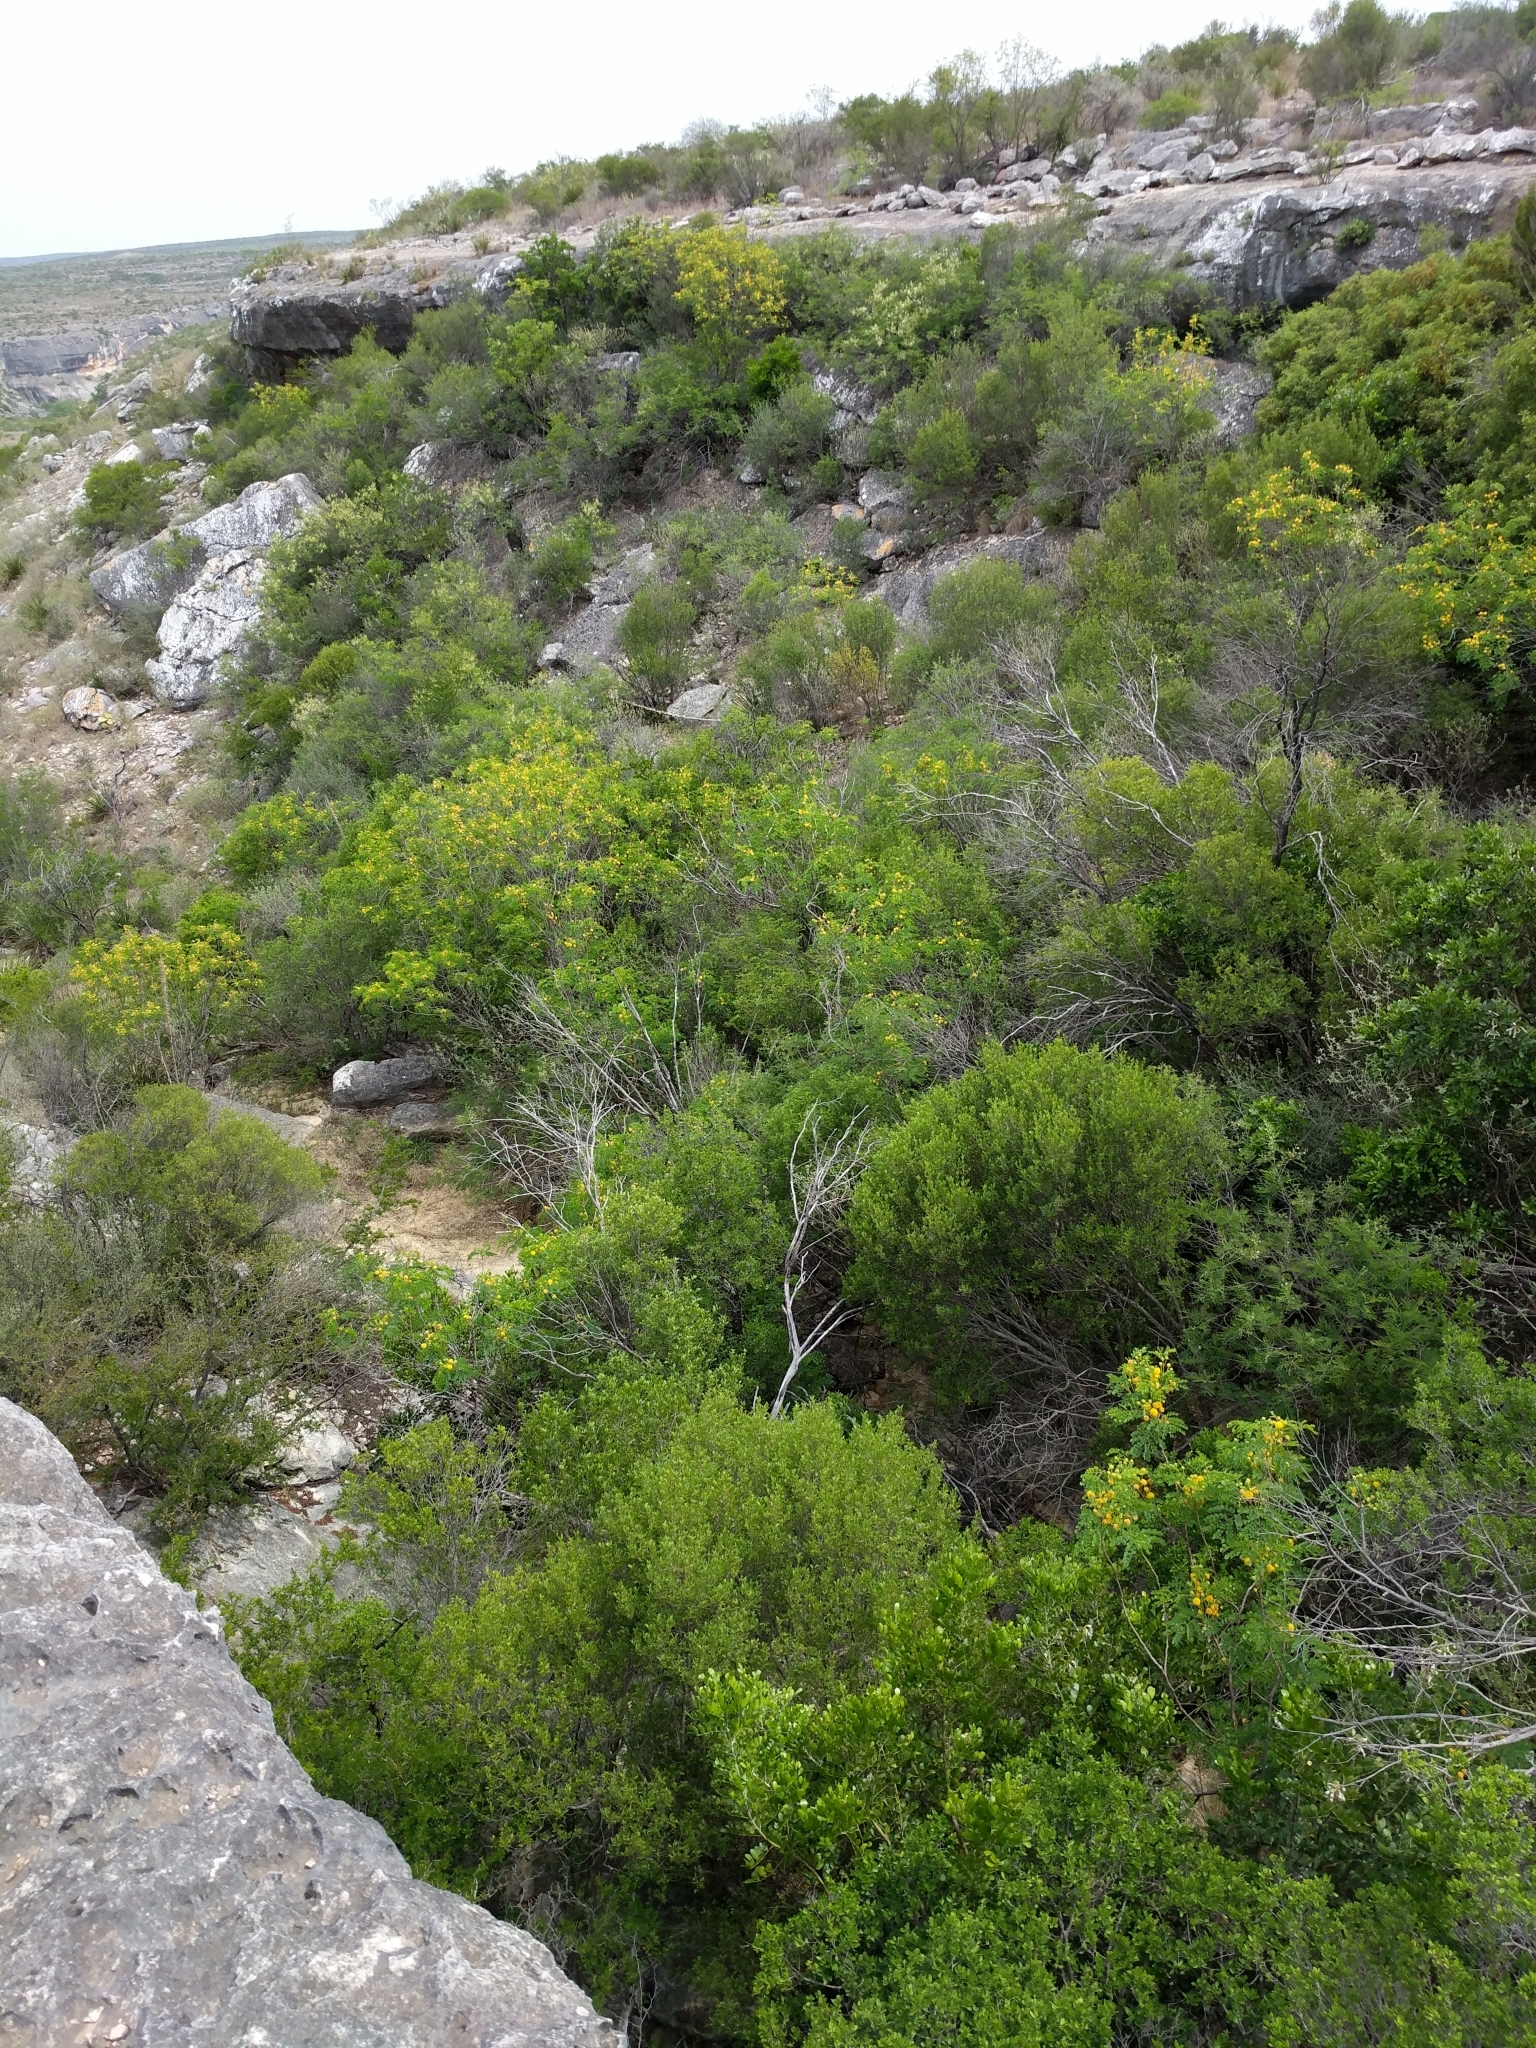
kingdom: Plantae
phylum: Tracheophyta
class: Magnoliopsida
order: Fabales
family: Fabaceae
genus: Leucaena
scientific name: Leucaena retusa
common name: Littleleaf leadtree
